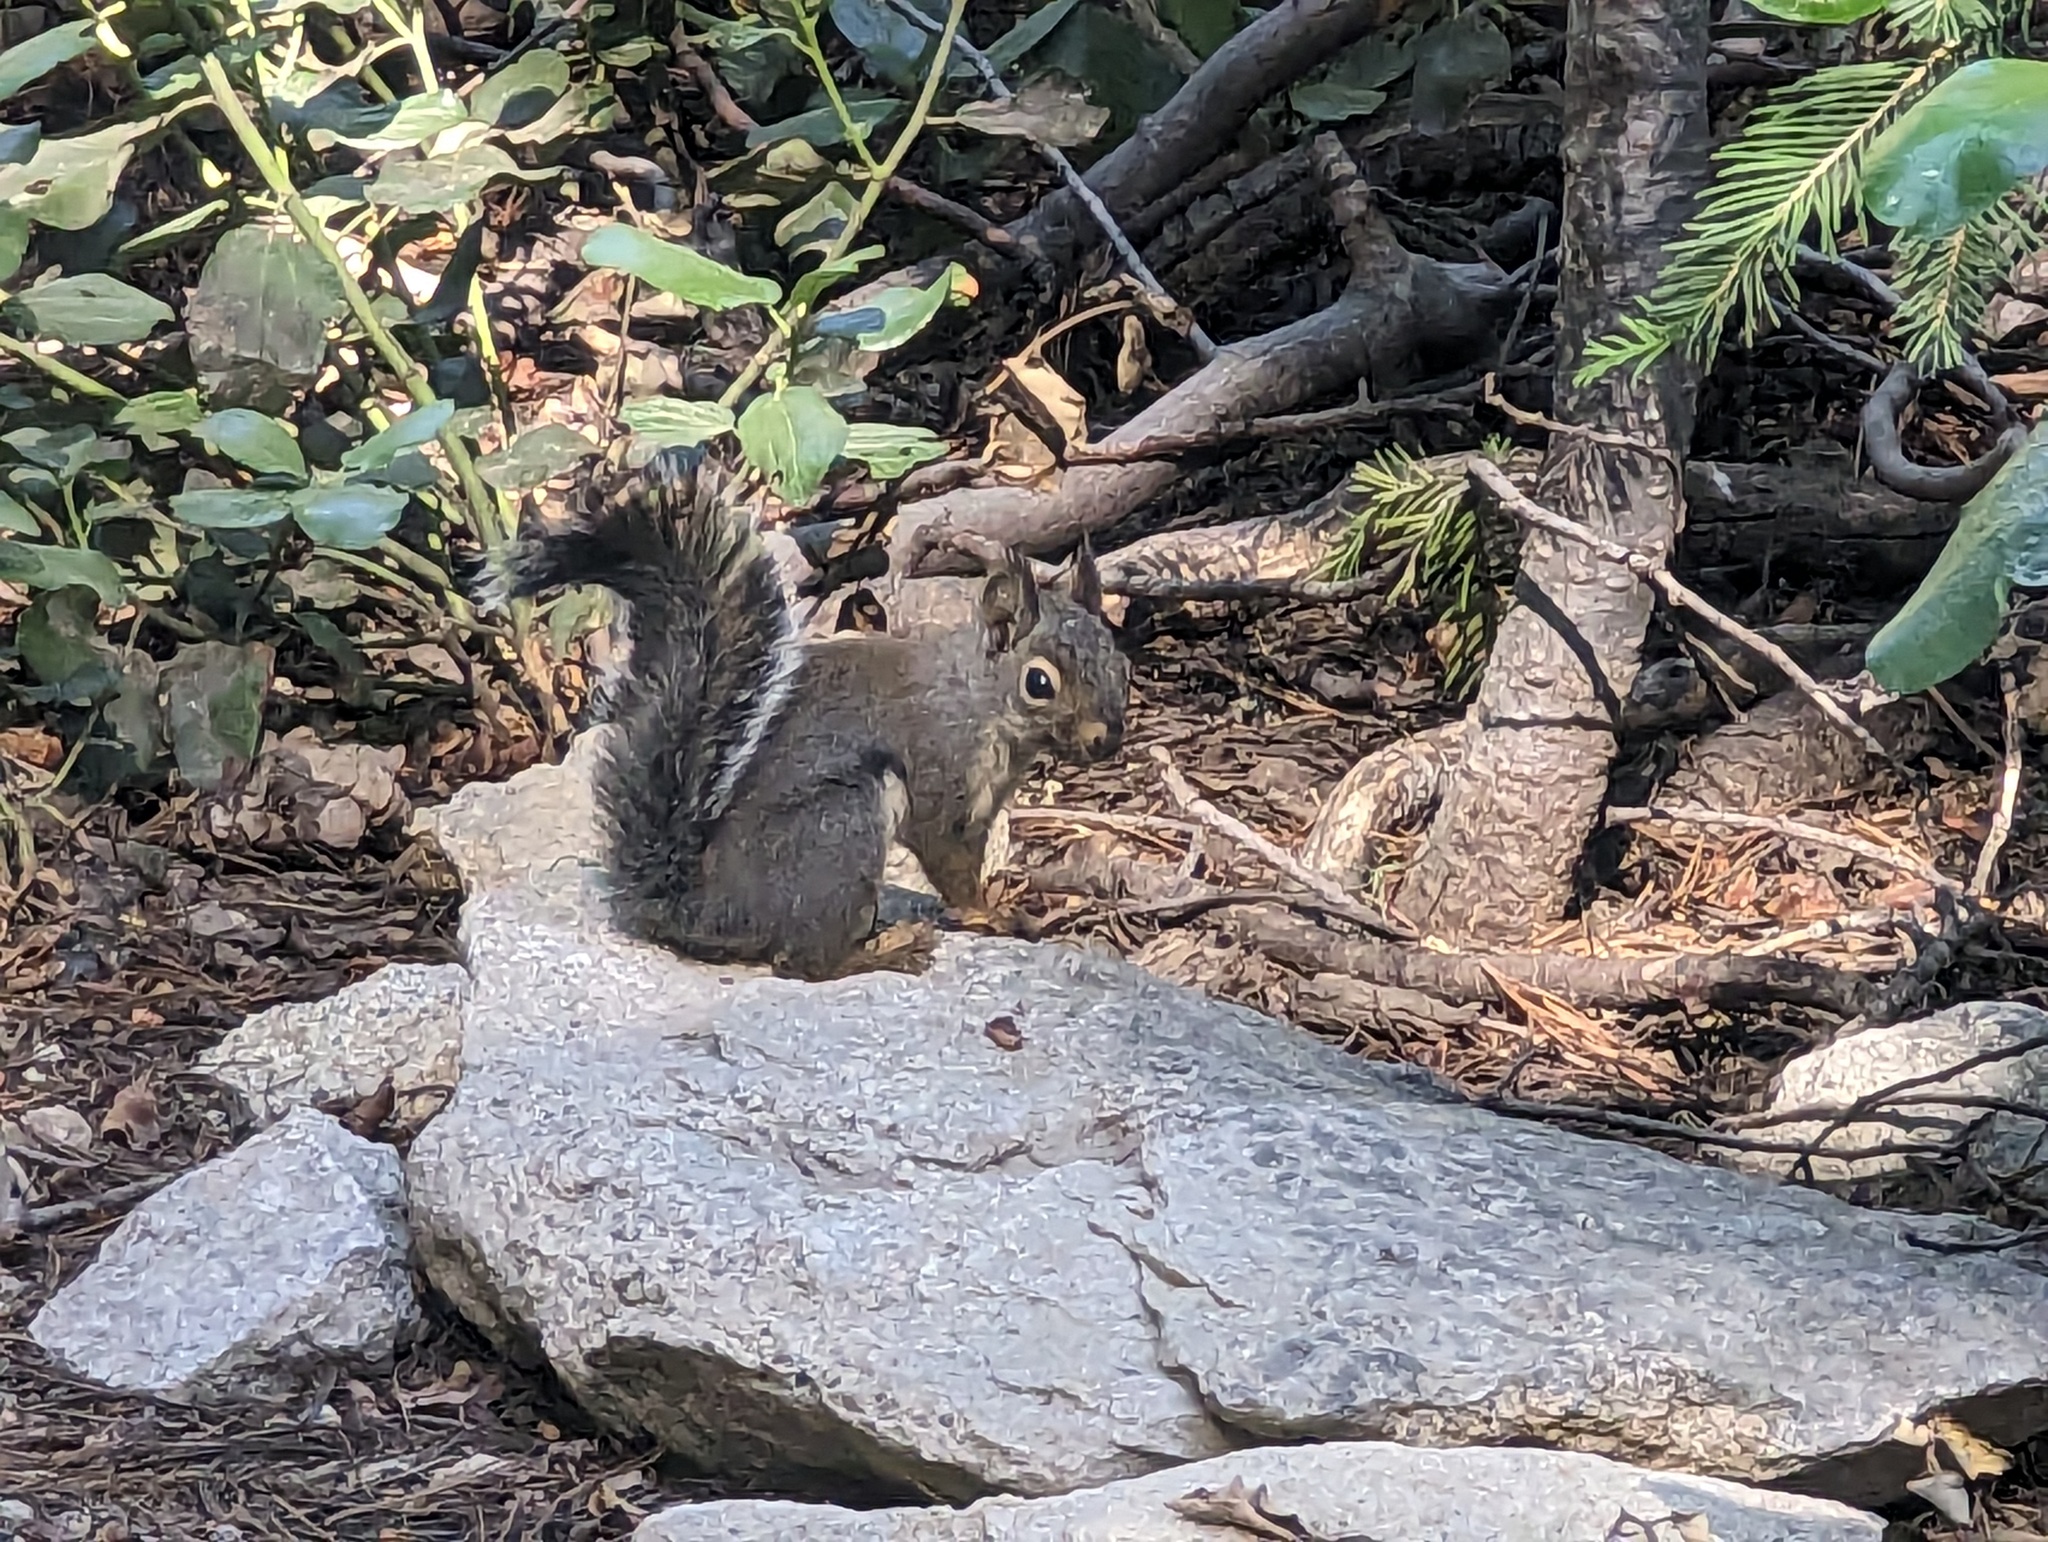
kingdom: Animalia
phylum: Chordata
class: Mammalia
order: Rodentia
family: Sciuridae
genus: Tamiasciurus
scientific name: Tamiasciurus douglasii
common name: Douglas's squirrel
